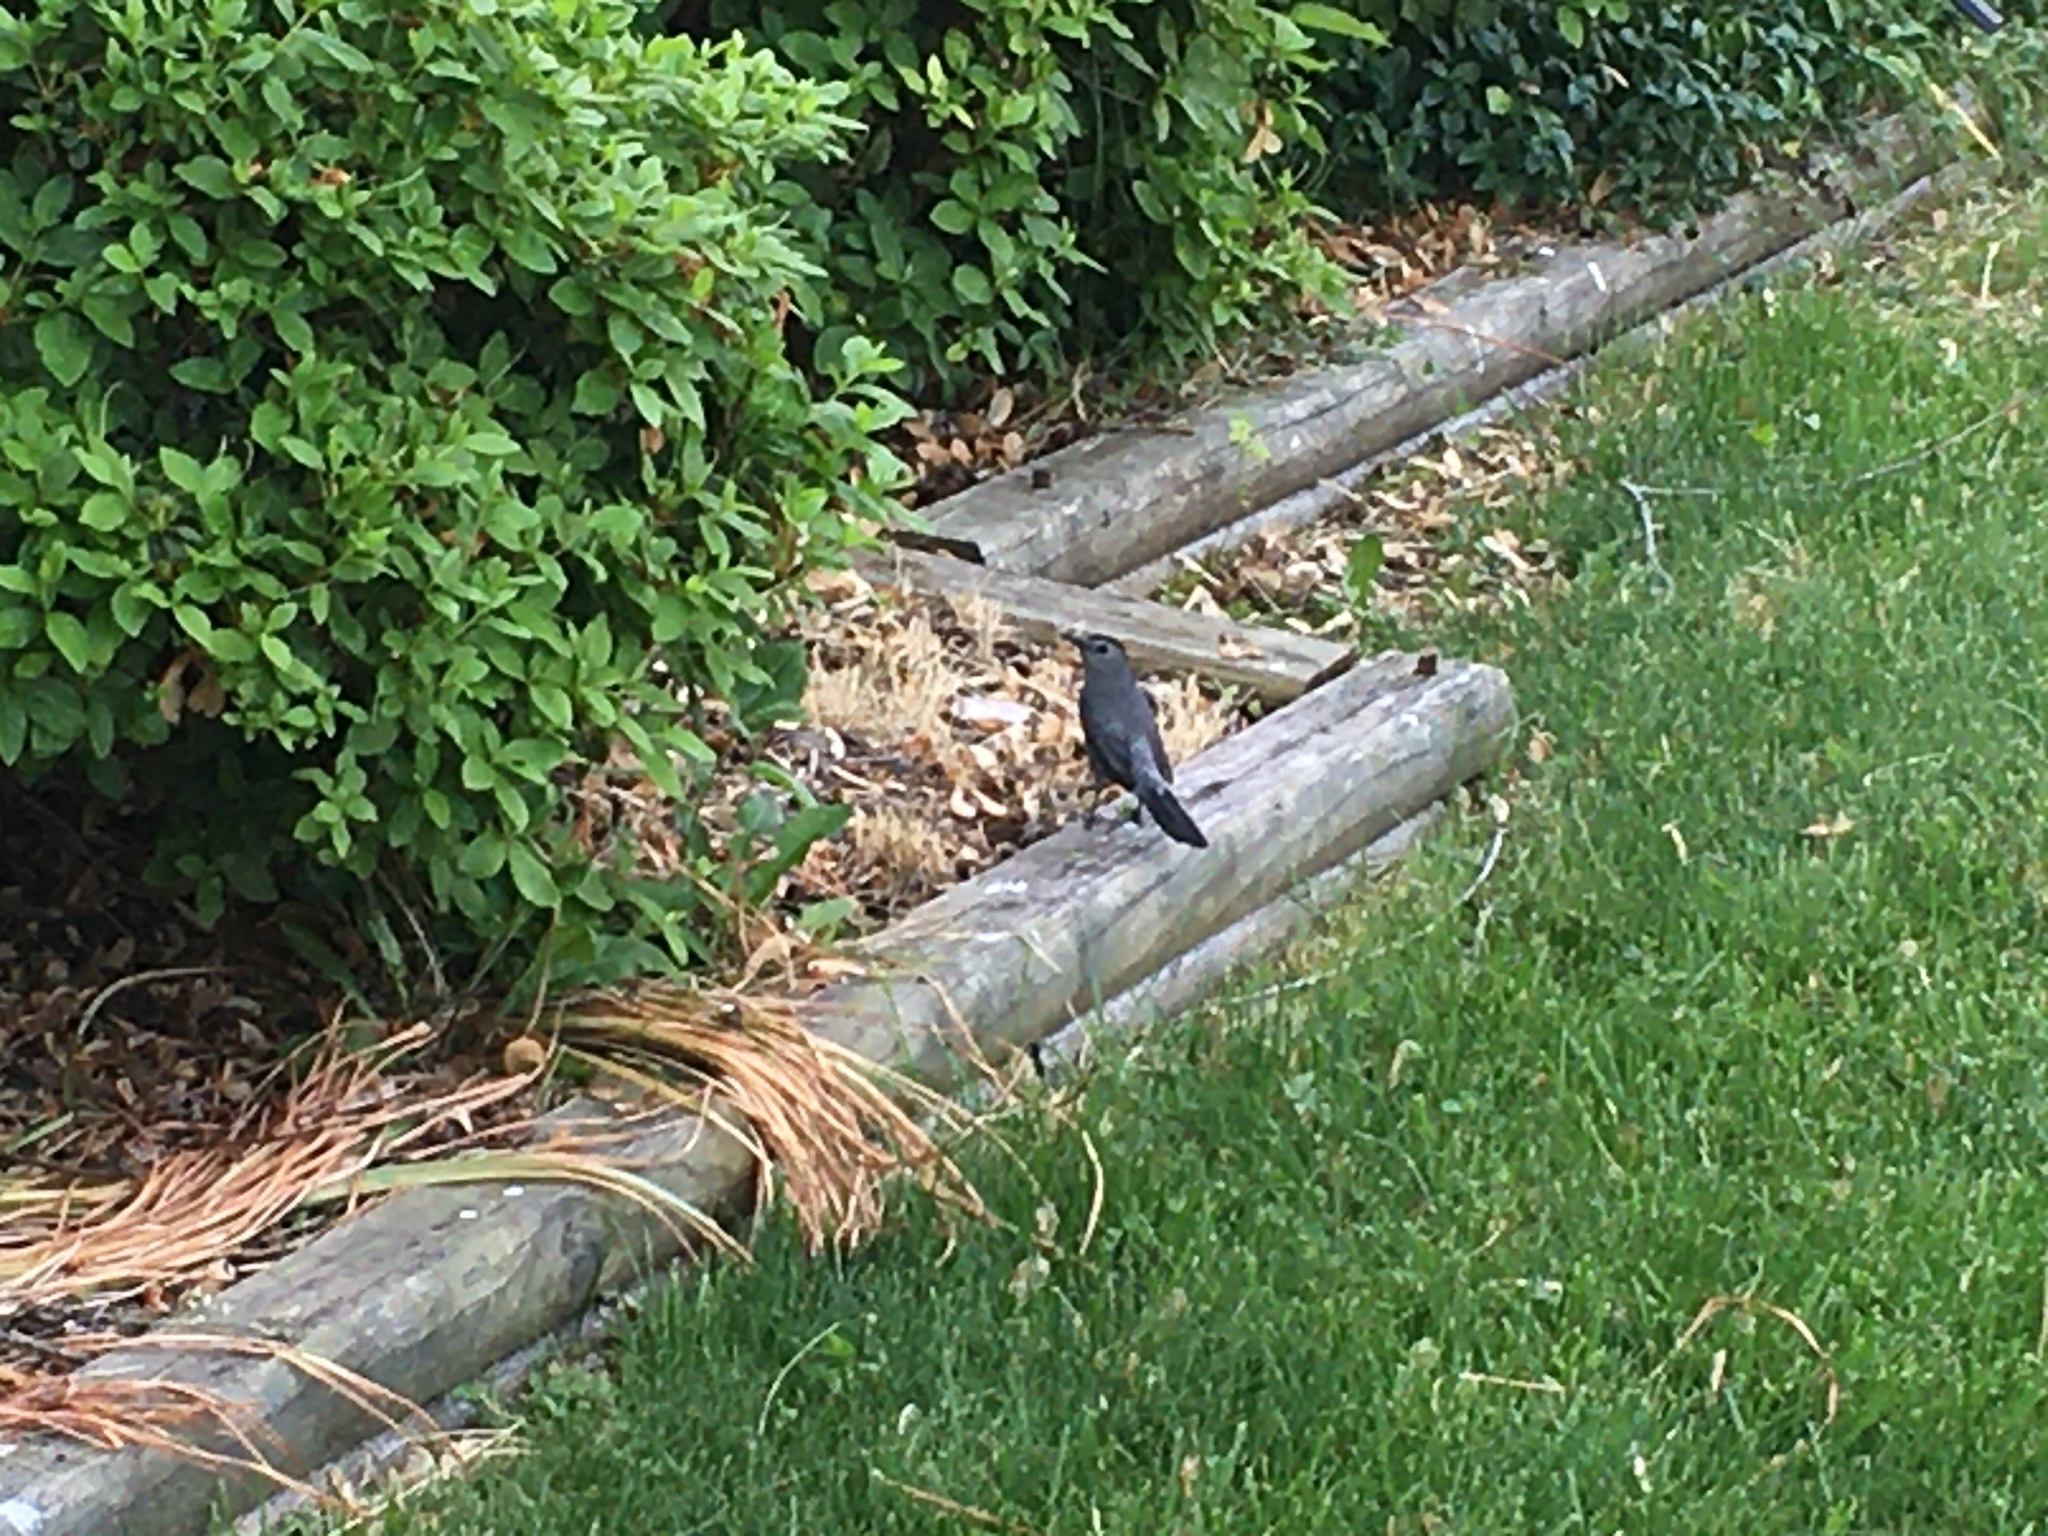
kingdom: Animalia
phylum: Chordata
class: Aves
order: Passeriformes
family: Mimidae
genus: Dumetella
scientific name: Dumetella carolinensis
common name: Gray catbird
